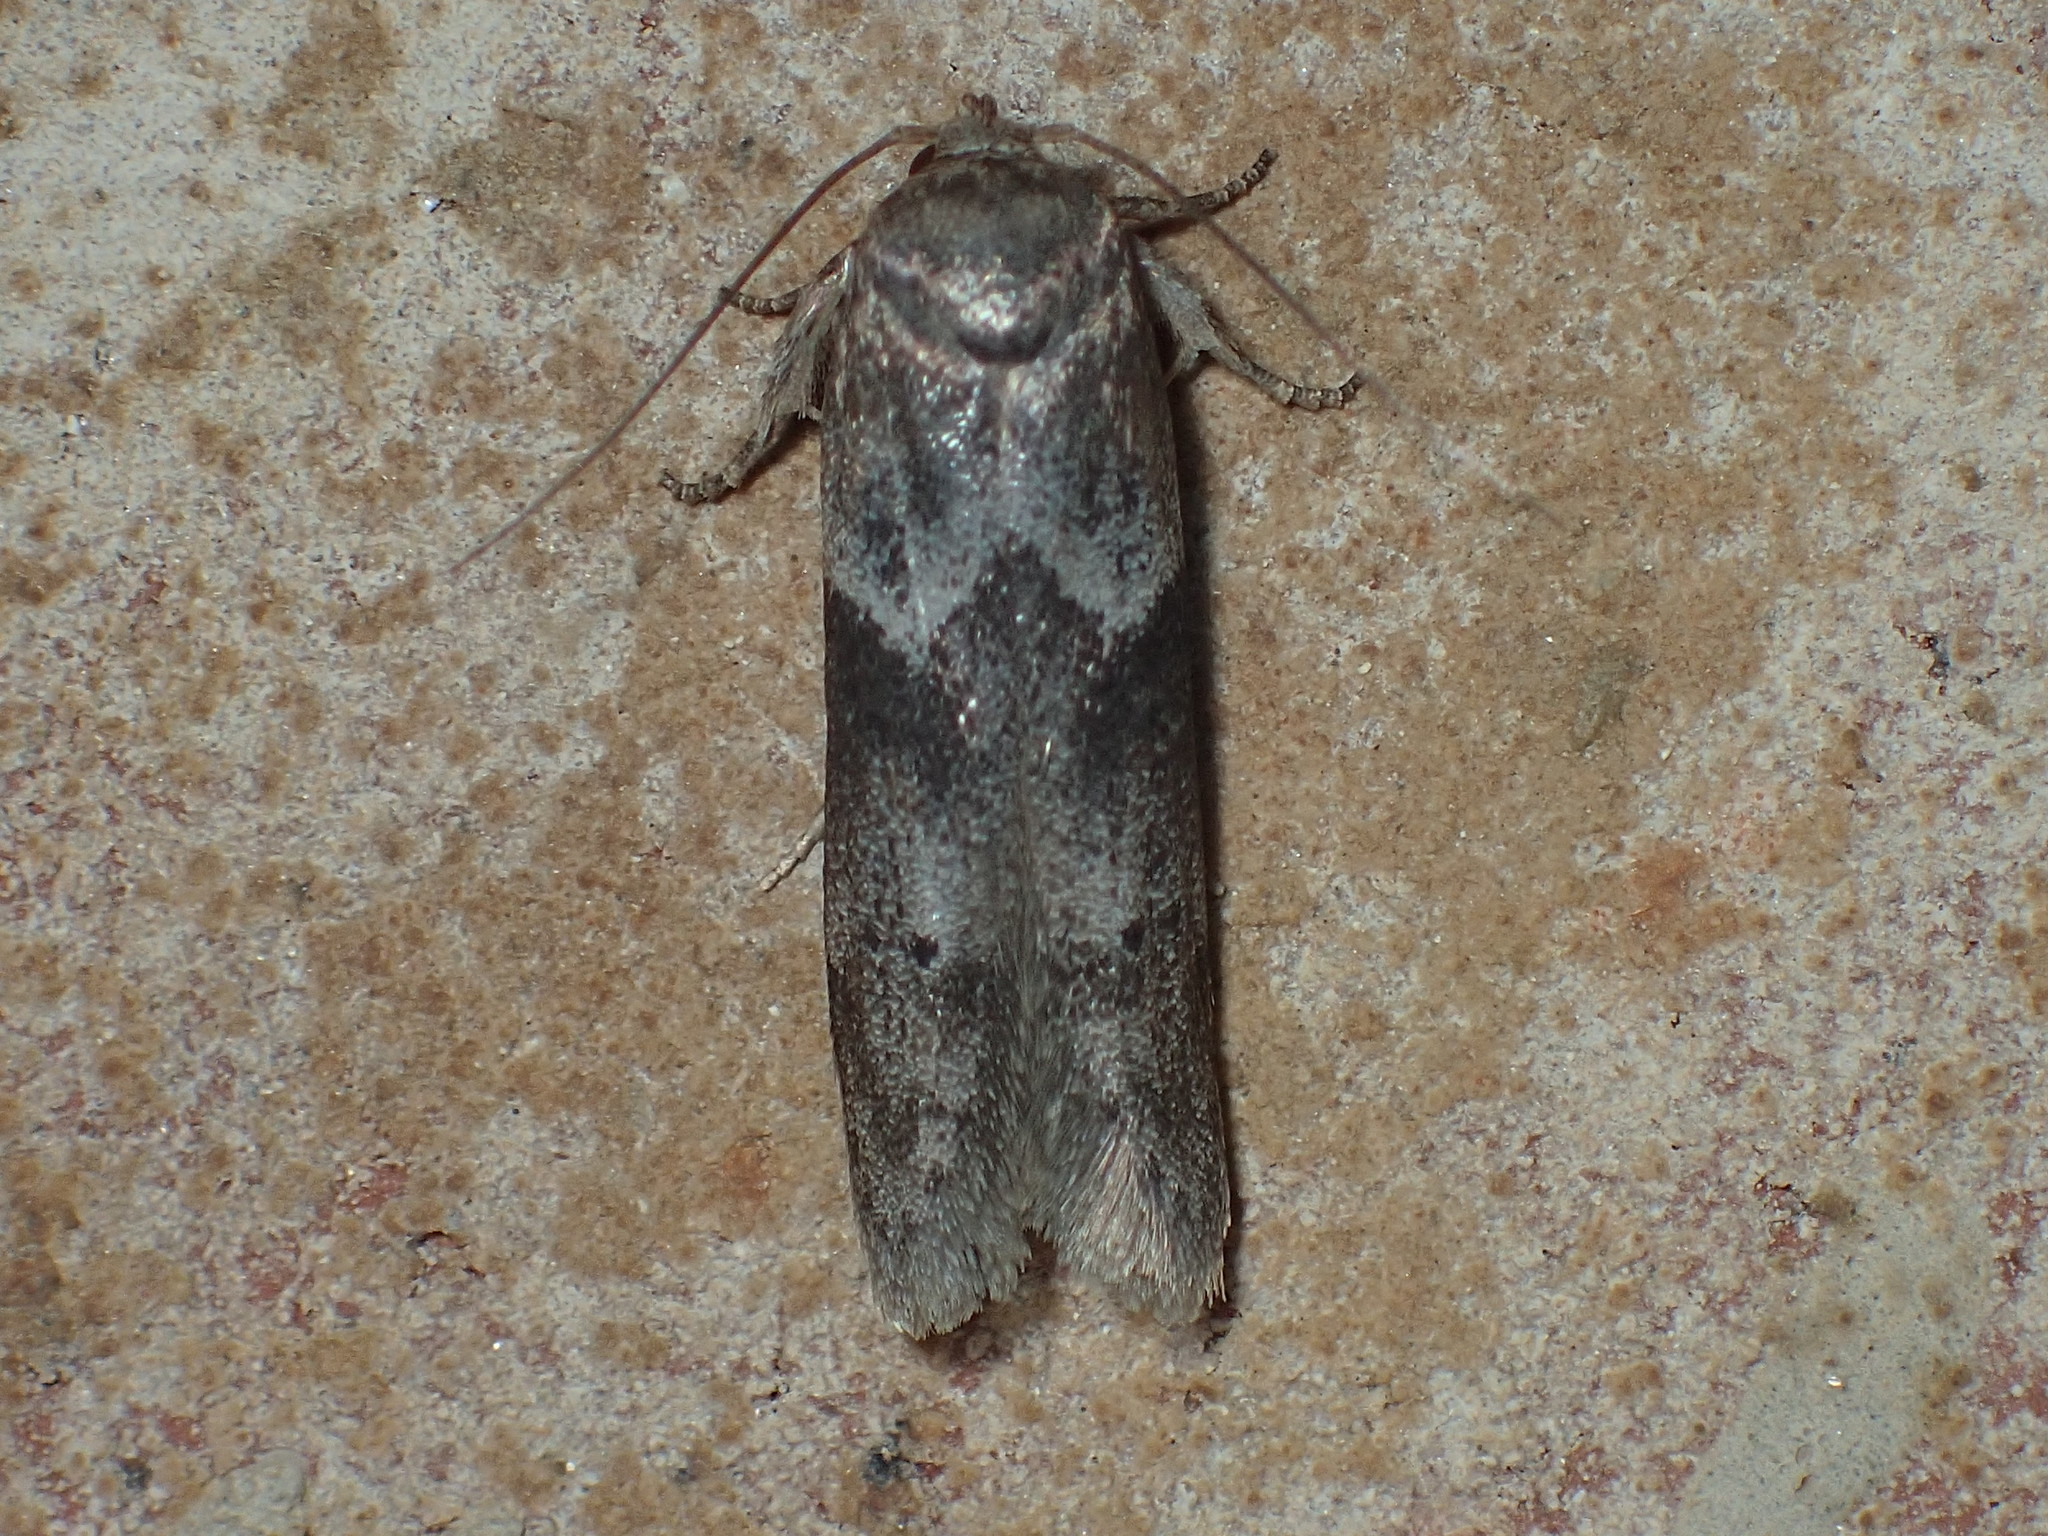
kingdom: Animalia
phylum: Arthropoda
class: Insecta
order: Lepidoptera
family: Blastobasidae
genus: Blastobasis
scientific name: Blastobasis glandulella
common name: Acorn moth
